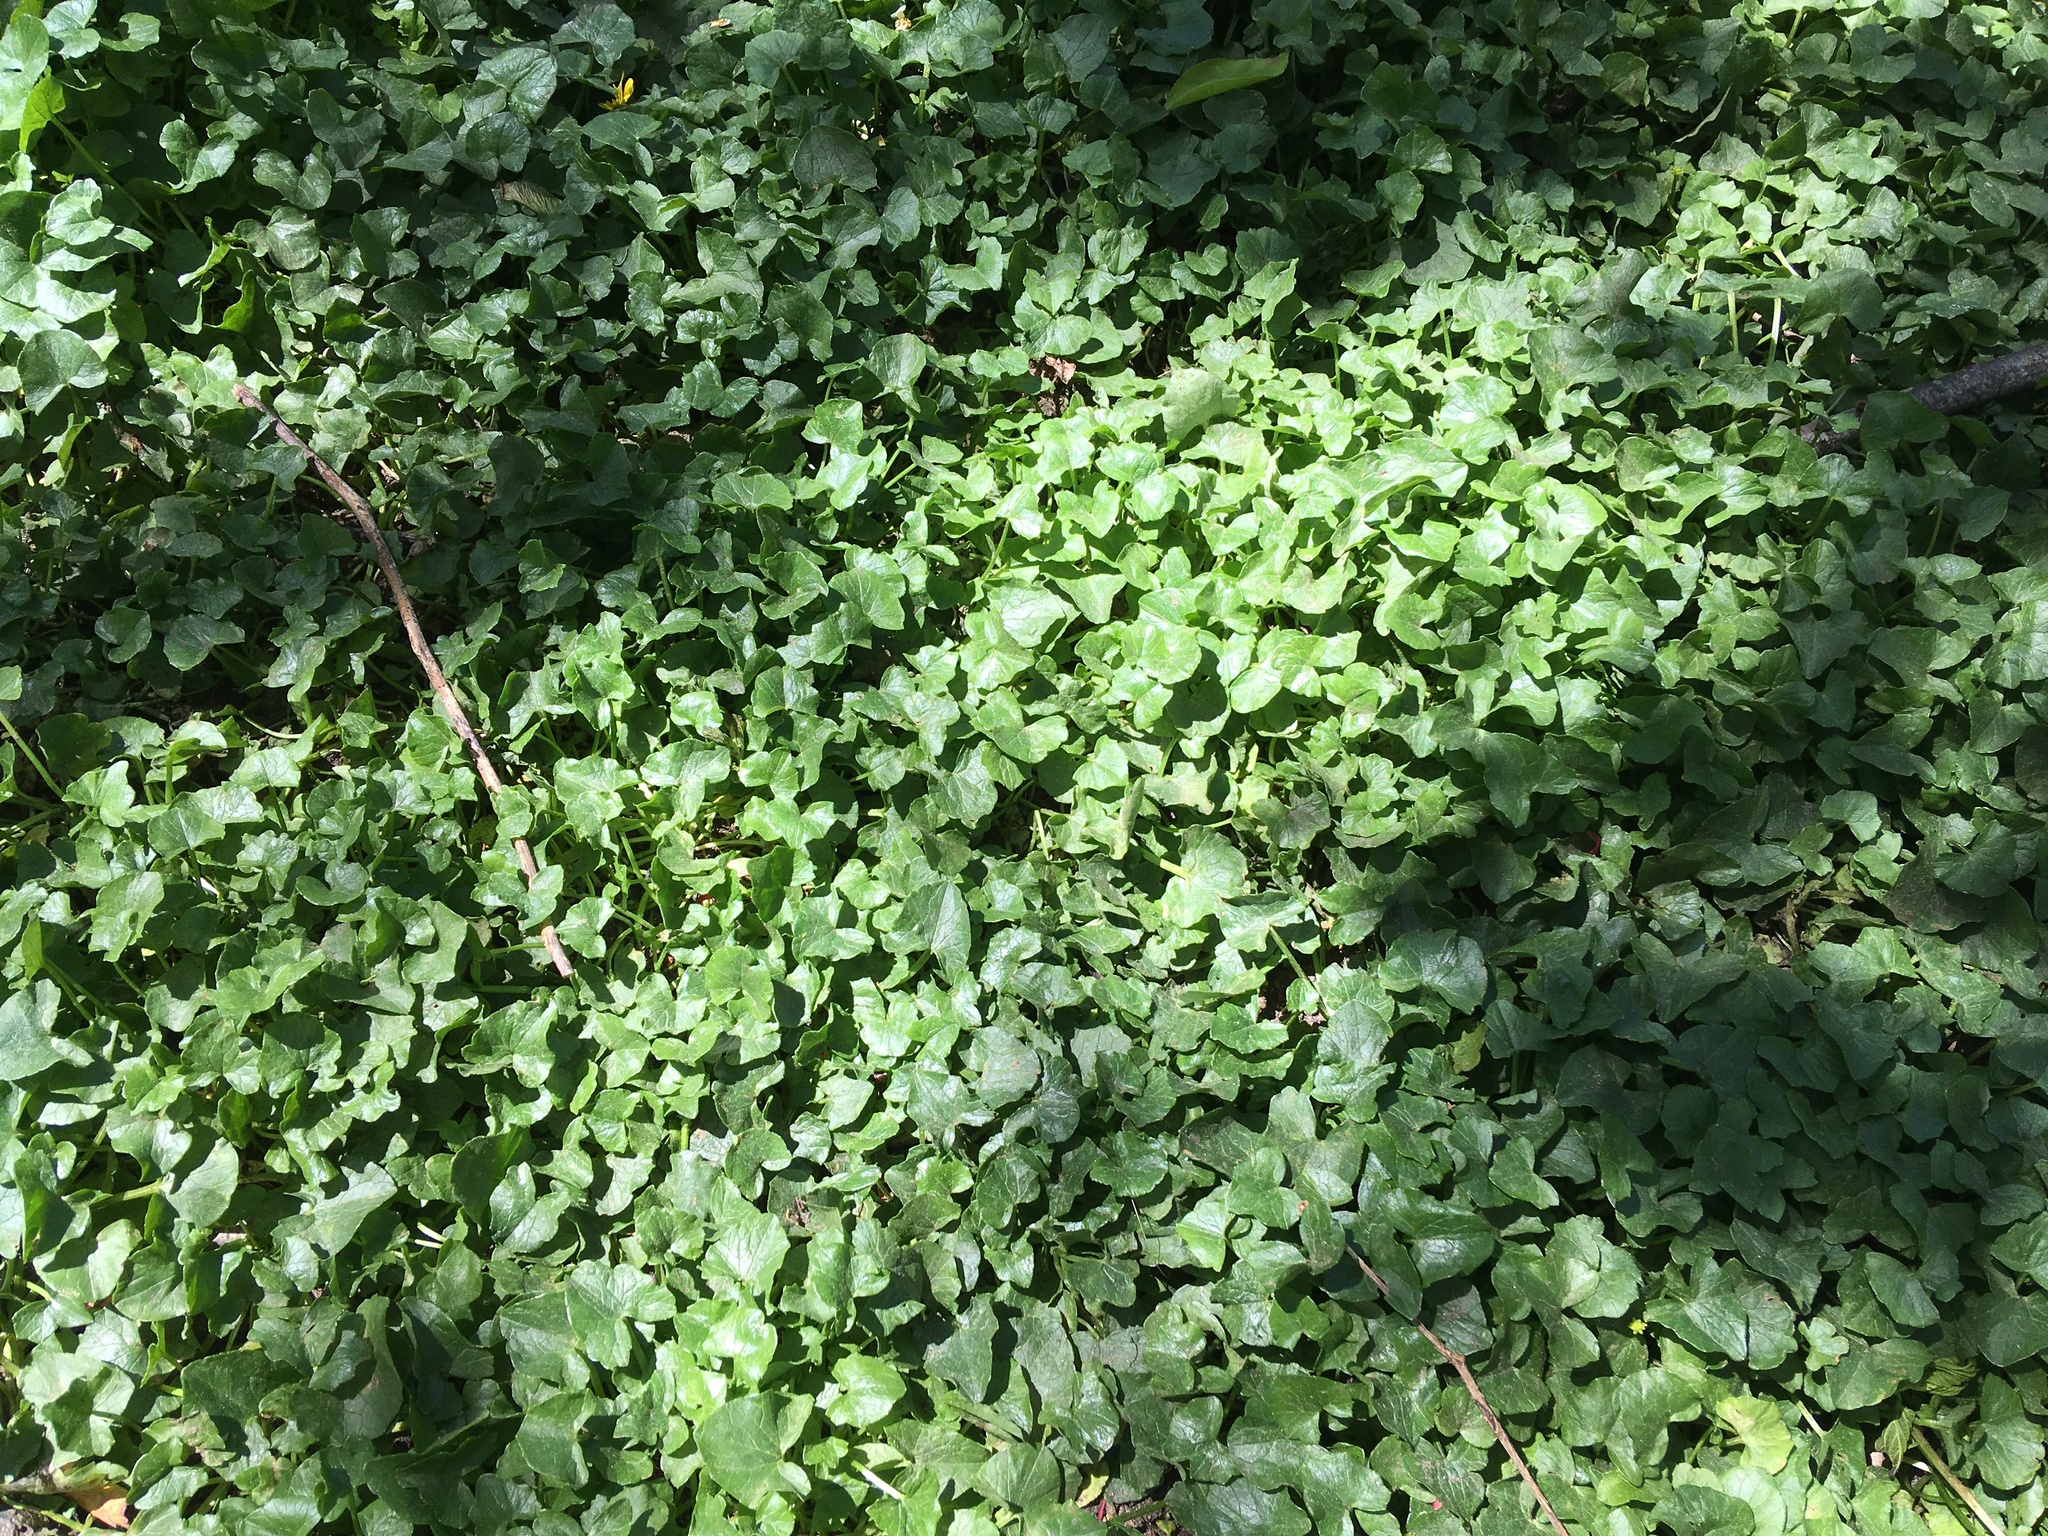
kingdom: Plantae
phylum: Tracheophyta
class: Magnoliopsida
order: Ranunculales
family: Ranunculaceae
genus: Ficaria
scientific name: Ficaria verna
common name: Lesser celandine
